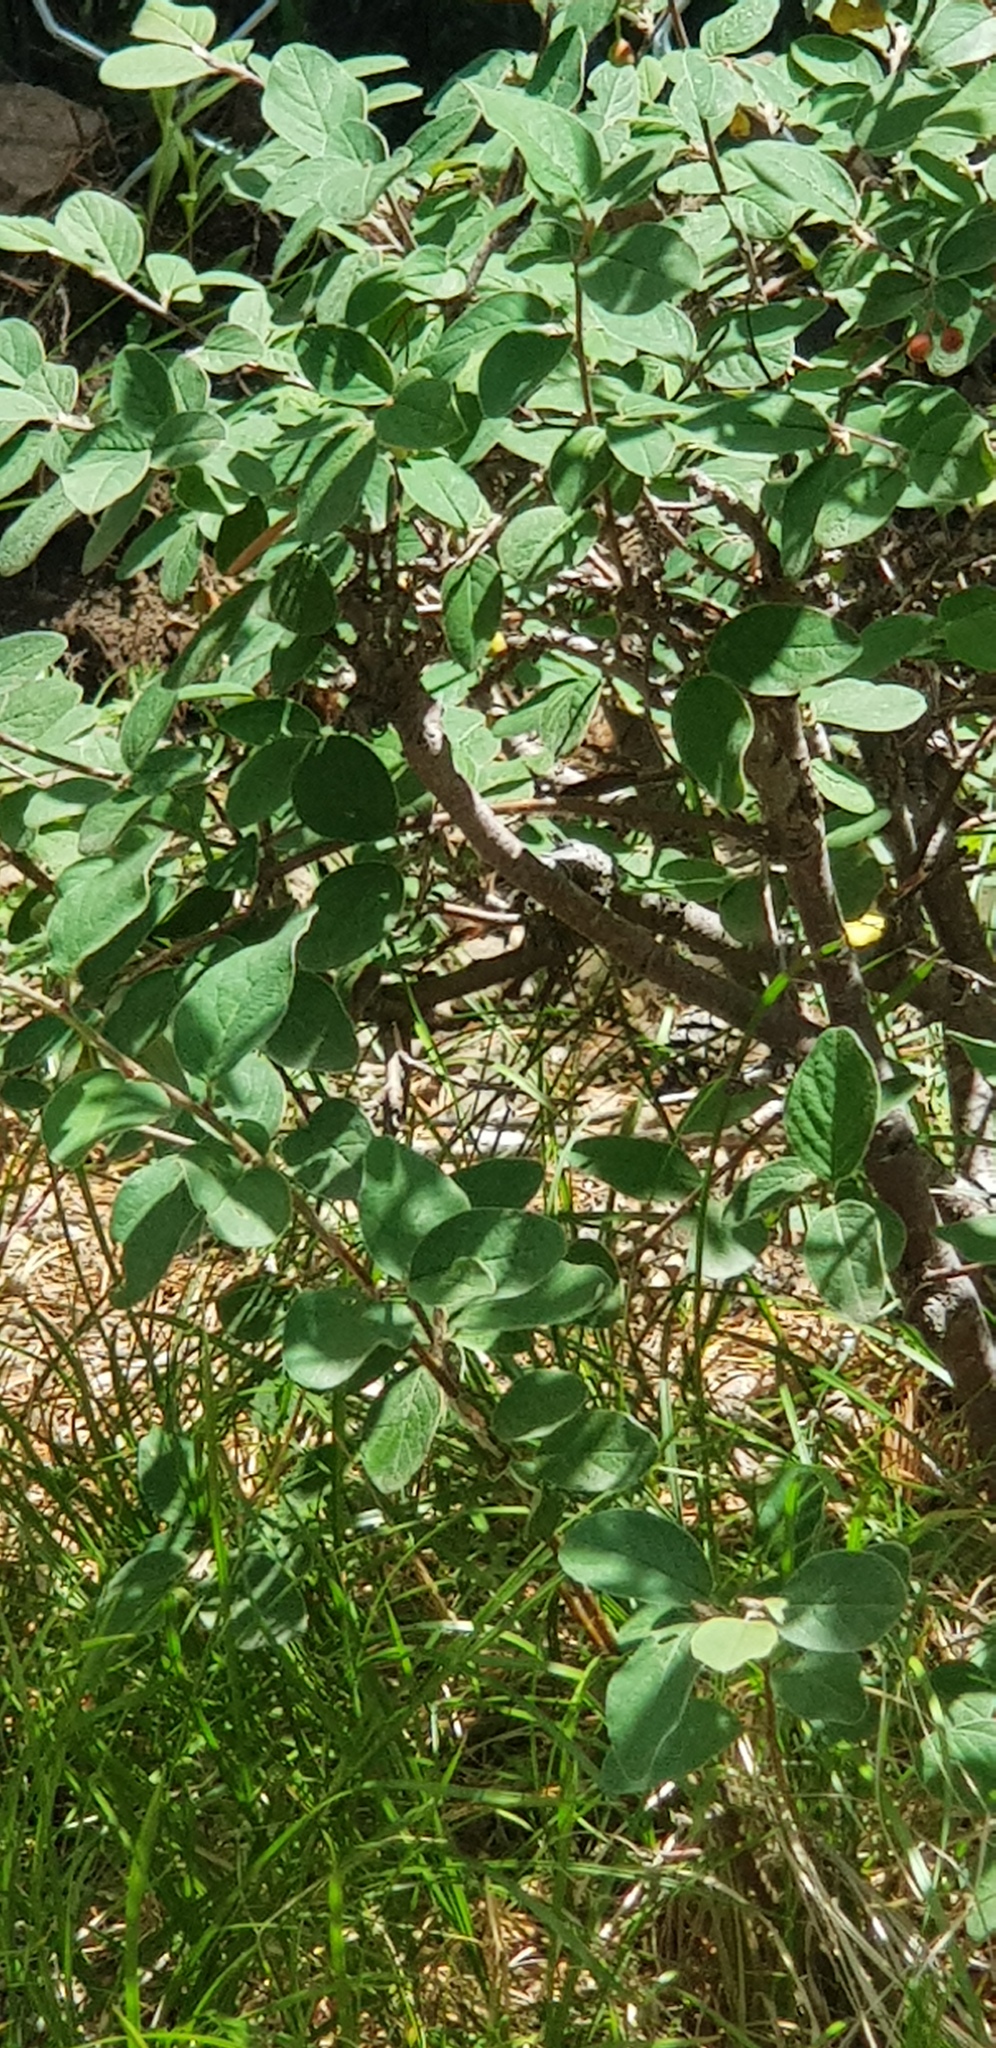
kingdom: Plantae
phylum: Tracheophyta
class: Magnoliopsida
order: Rosales
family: Rosaceae
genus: Cotoneaster
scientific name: Cotoneaster melanocarpus
